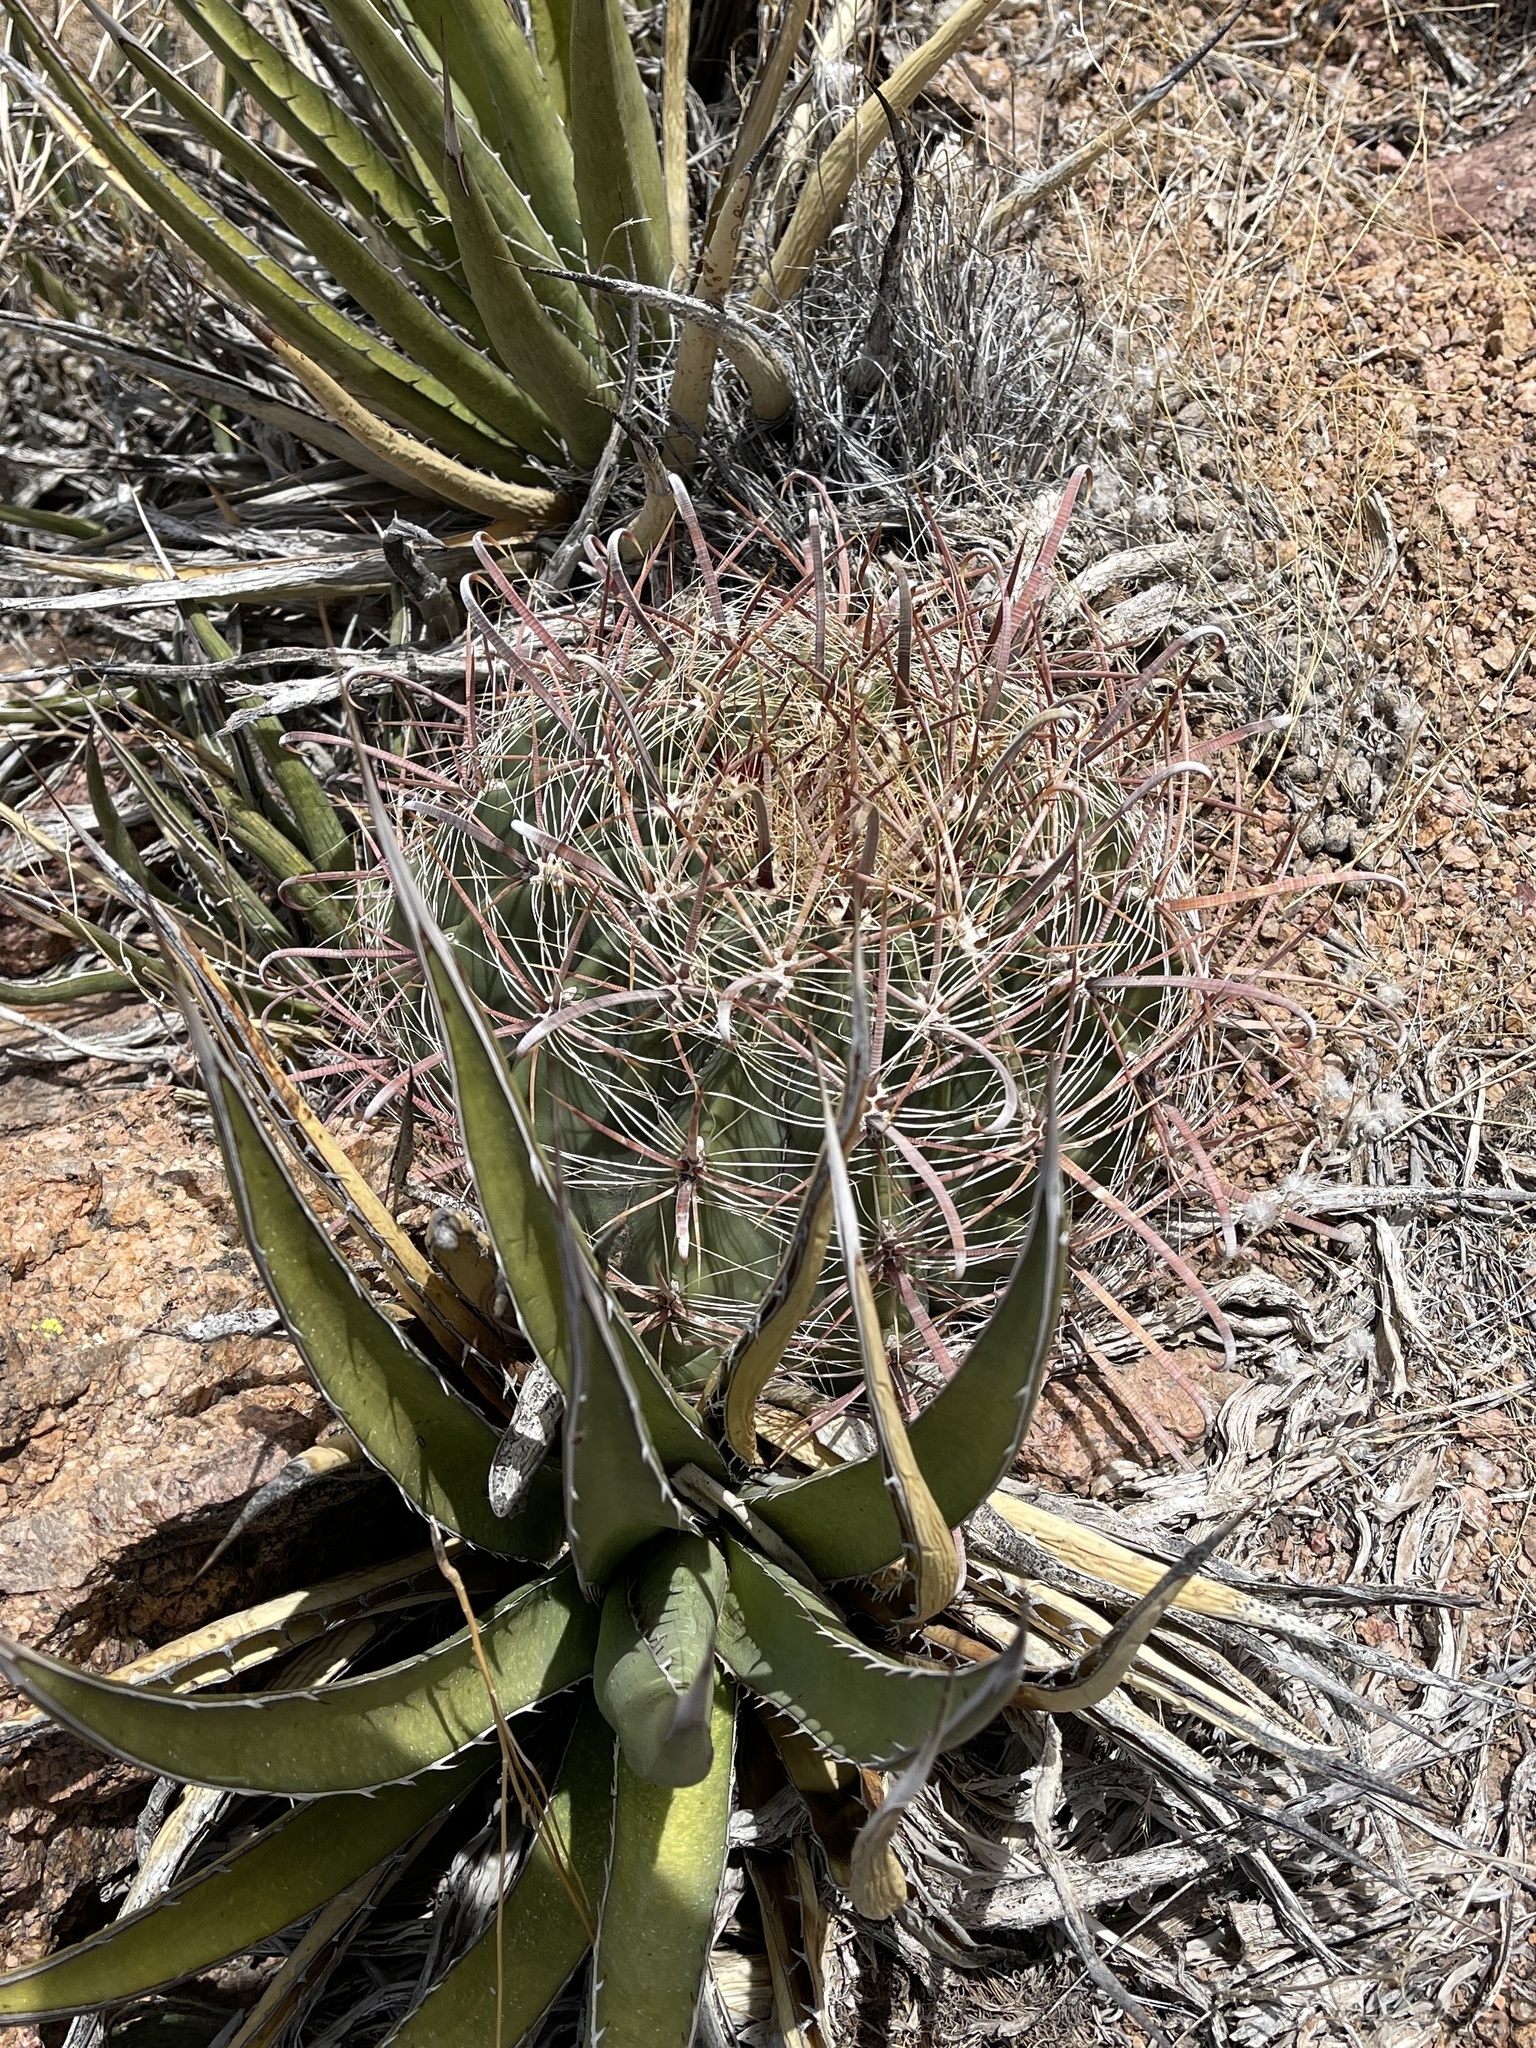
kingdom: Plantae
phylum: Tracheophyta
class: Magnoliopsida
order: Caryophyllales
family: Cactaceae
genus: Ferocactus
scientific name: Ferocactus wislizeni
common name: Candy barrel cactus
